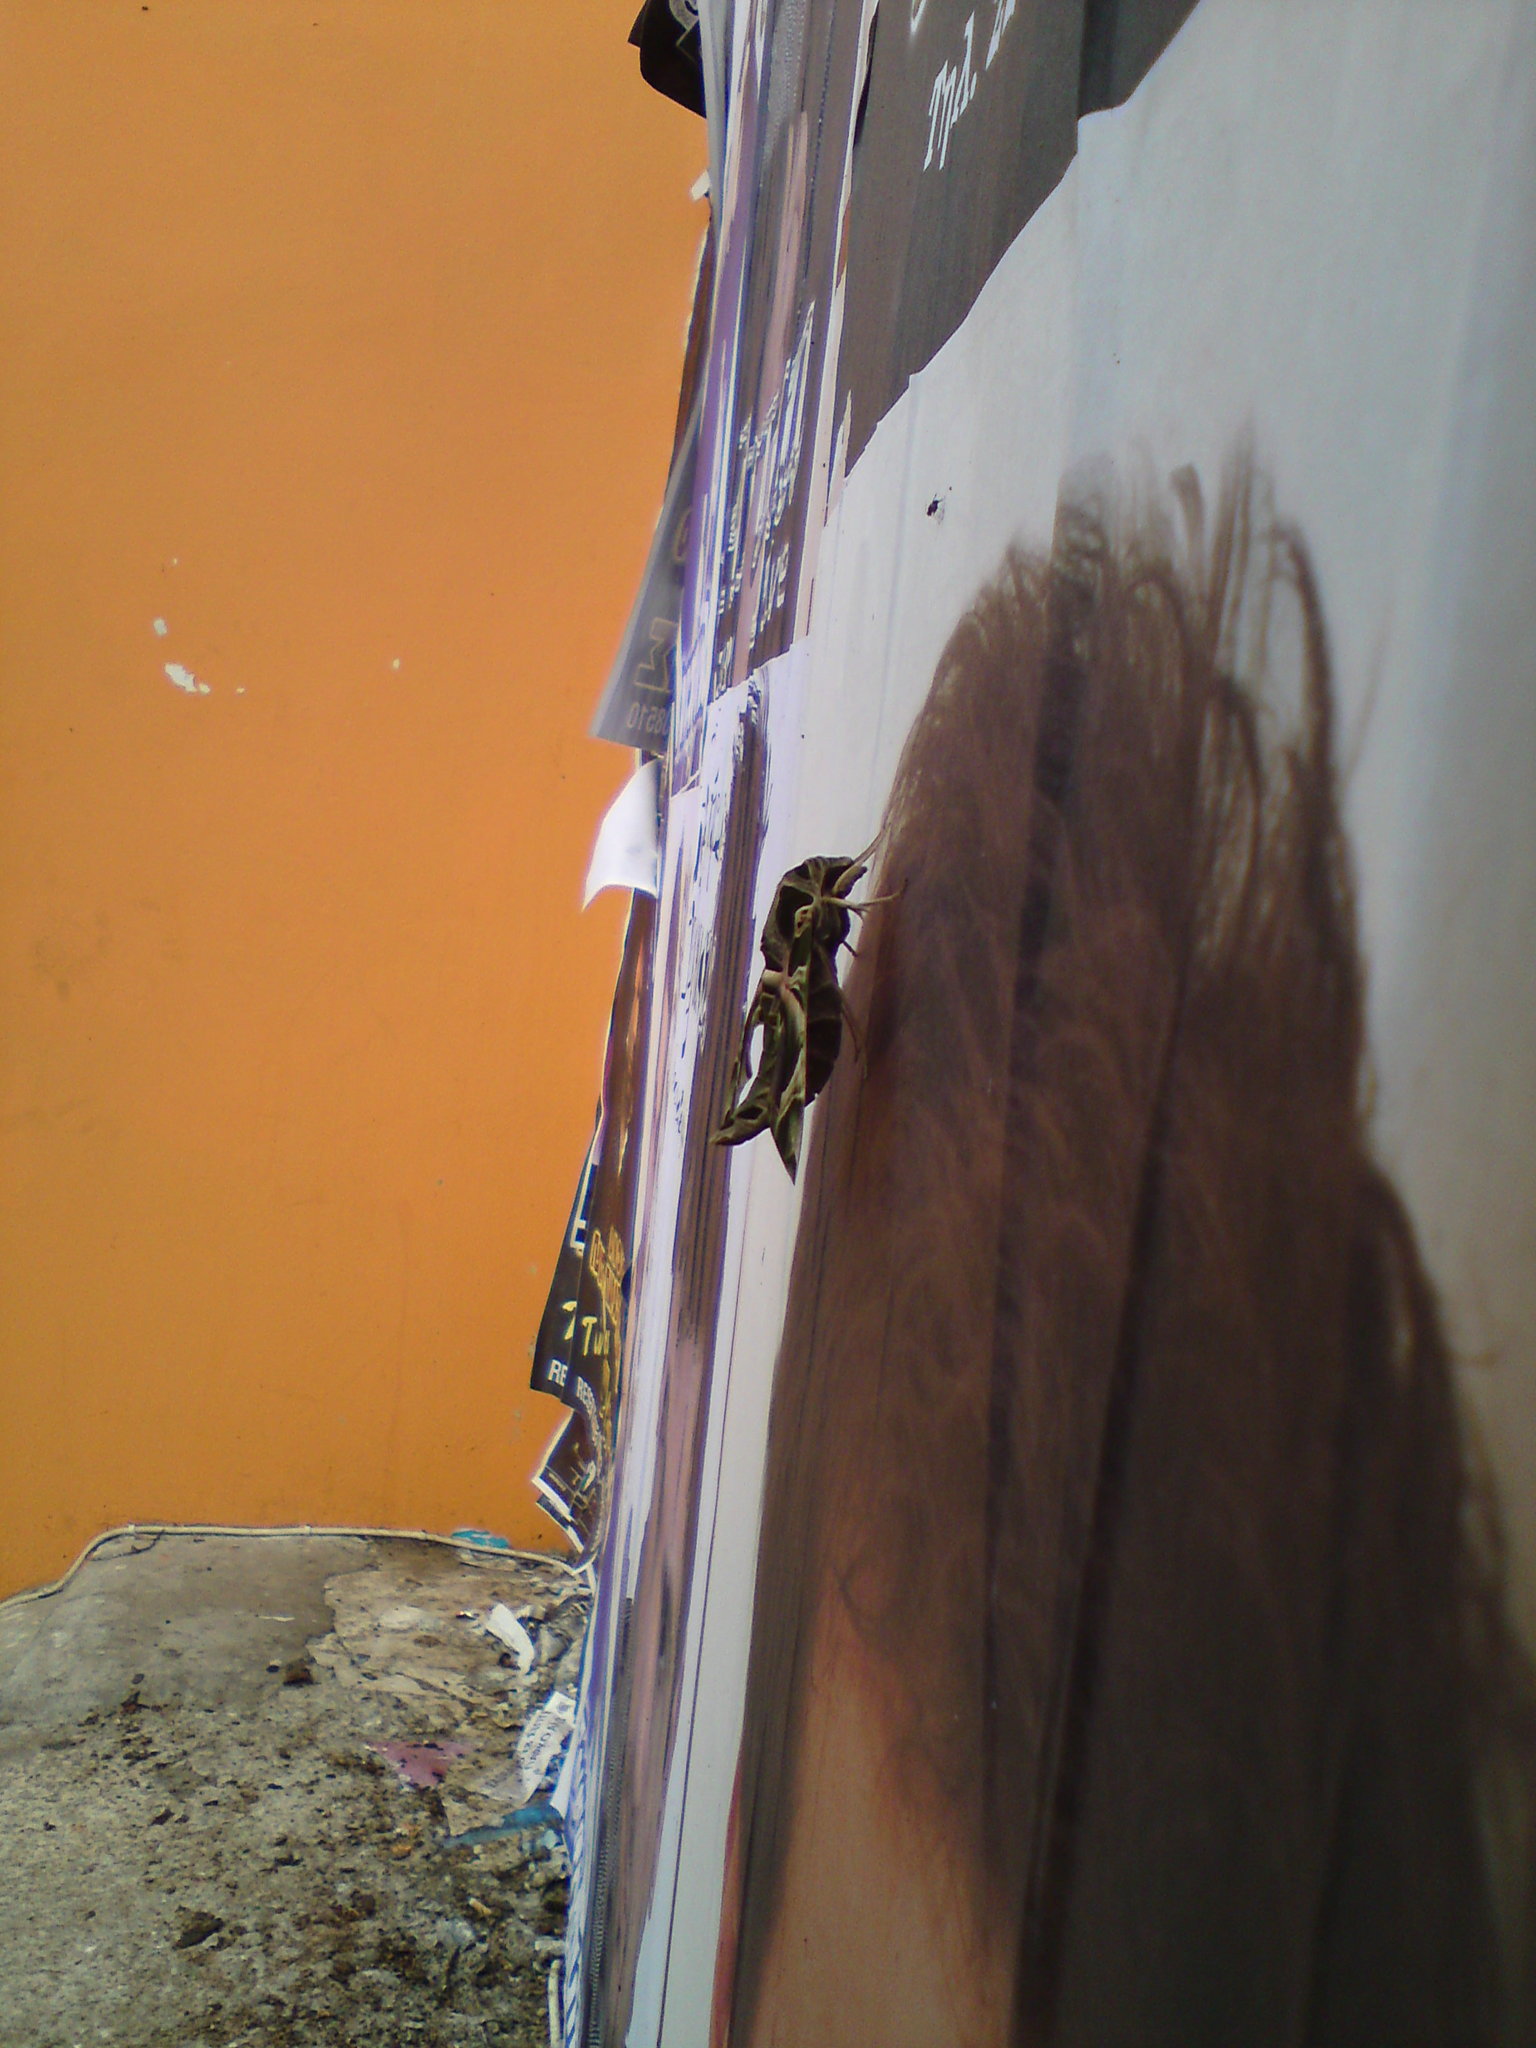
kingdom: Animalia
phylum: Arthropoda
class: Insecta
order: Lepidoptera
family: Sphingidae
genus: Daphnis
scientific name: Daphnis nerii
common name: Oleander hawk-moth
